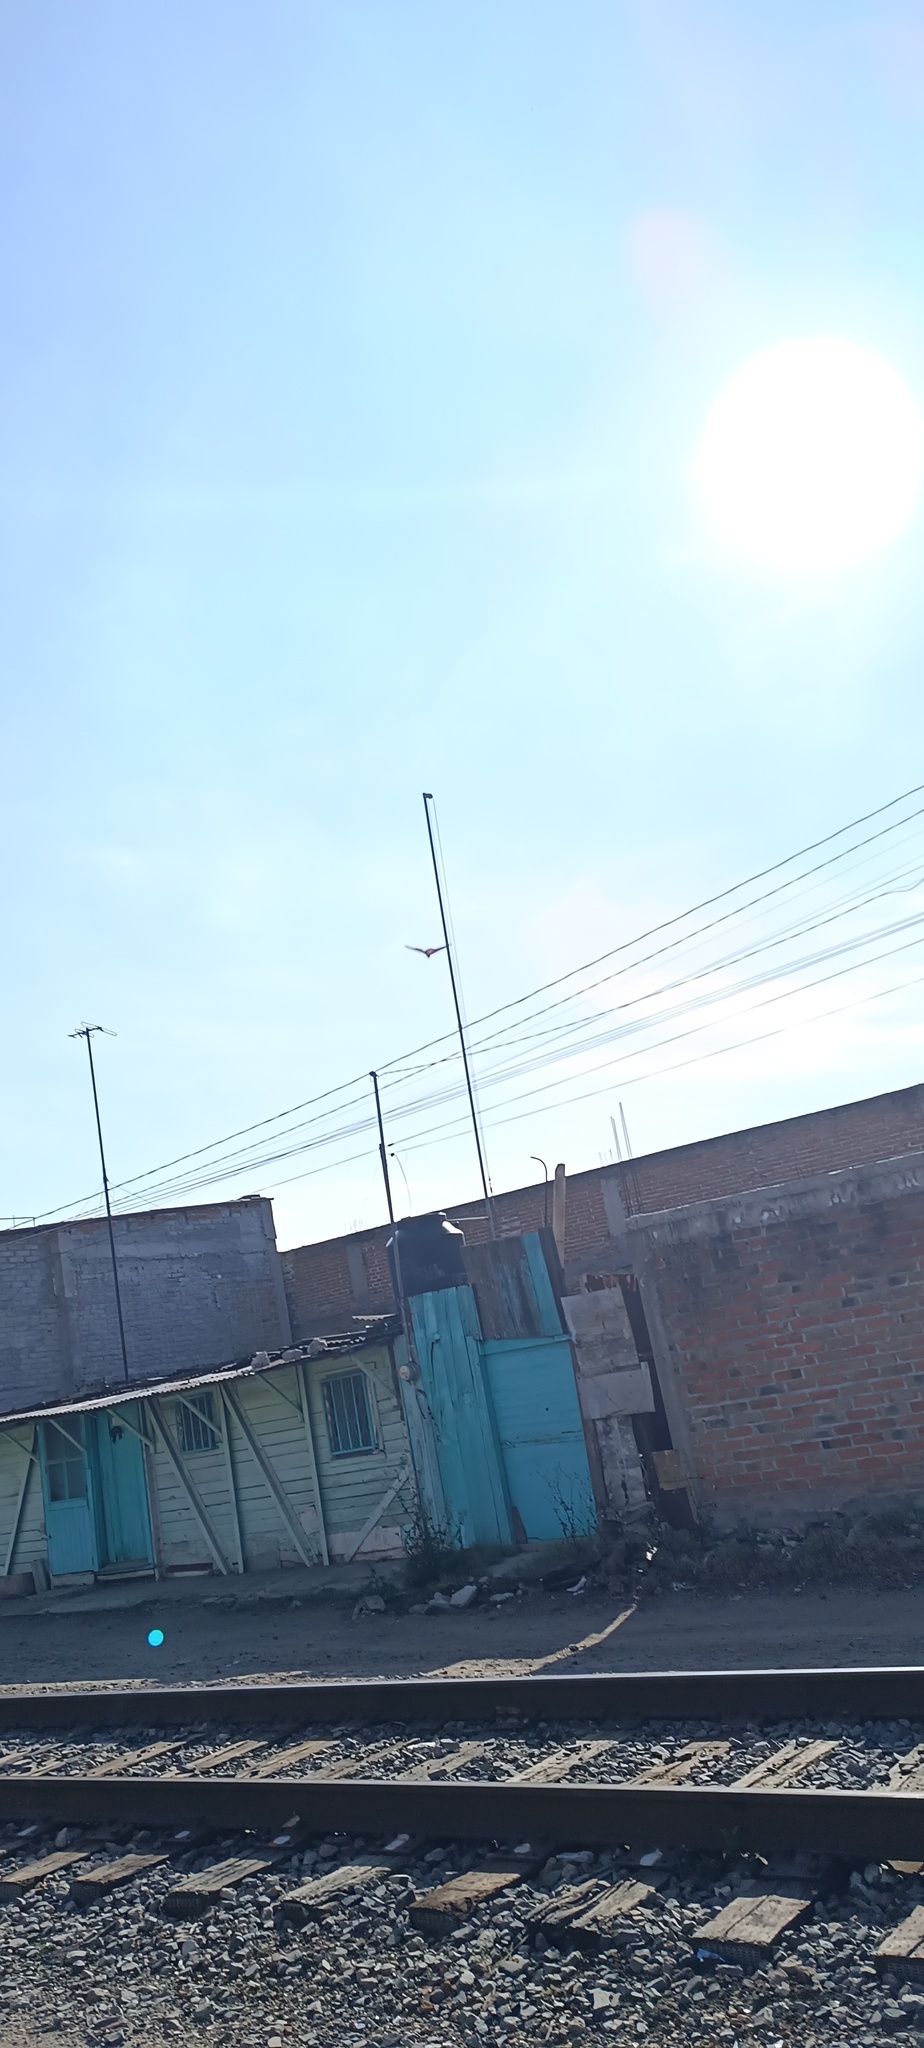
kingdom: Animalia
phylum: Arthropoda
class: Insecta
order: Lepidoptera
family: Nymphalidae
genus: Danaus
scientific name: Danaus plexippus
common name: Monarch
